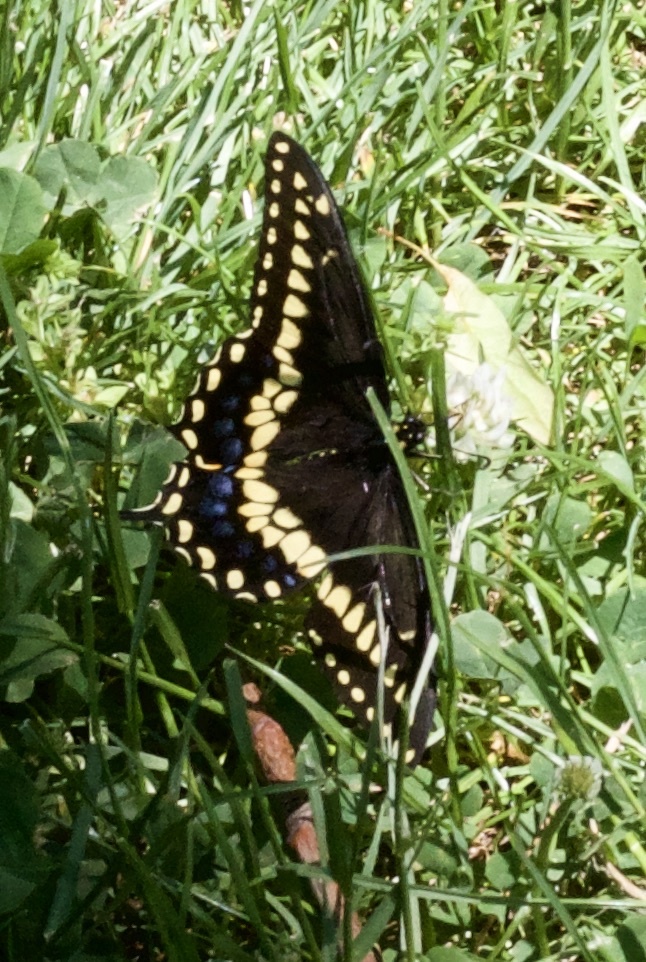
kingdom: Animalia
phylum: Arthropoda
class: Insecta
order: Lepidoptera
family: Papilionidae
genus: Papilio
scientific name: Papilio polyxenes
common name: Black swallowtail
